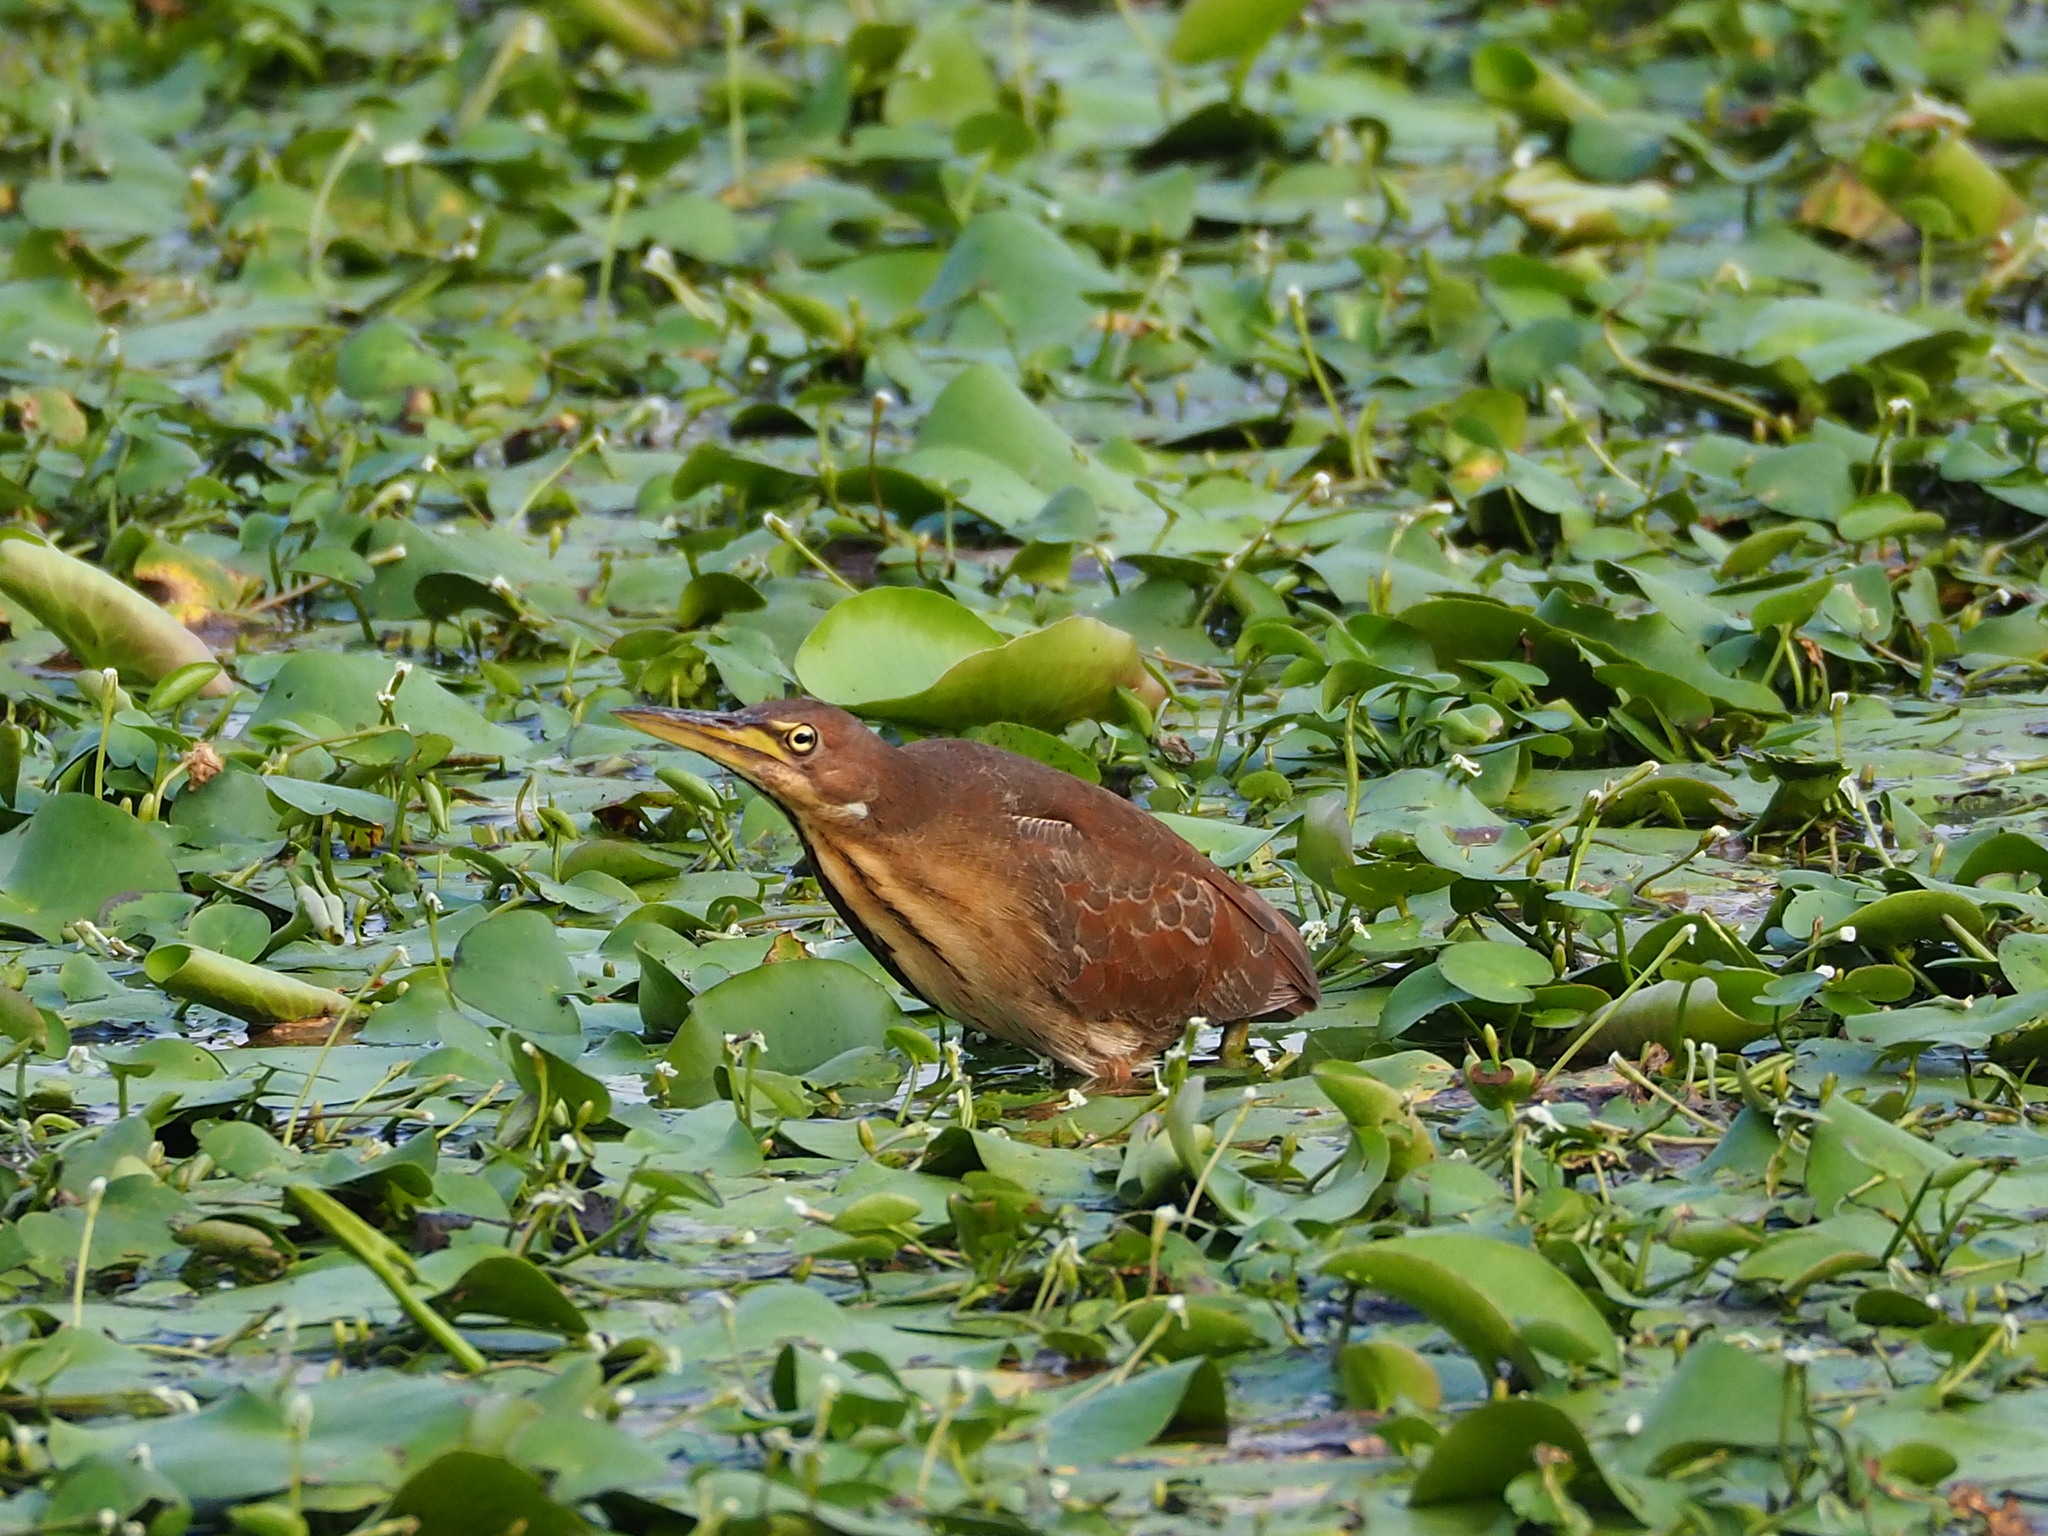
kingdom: Animalia
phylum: Chordata
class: Aves
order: Pelecaniformes
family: Ardeidae
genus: Ixobrychus
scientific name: Ixobrychus cinnamomeus
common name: Cinnamon bittern
